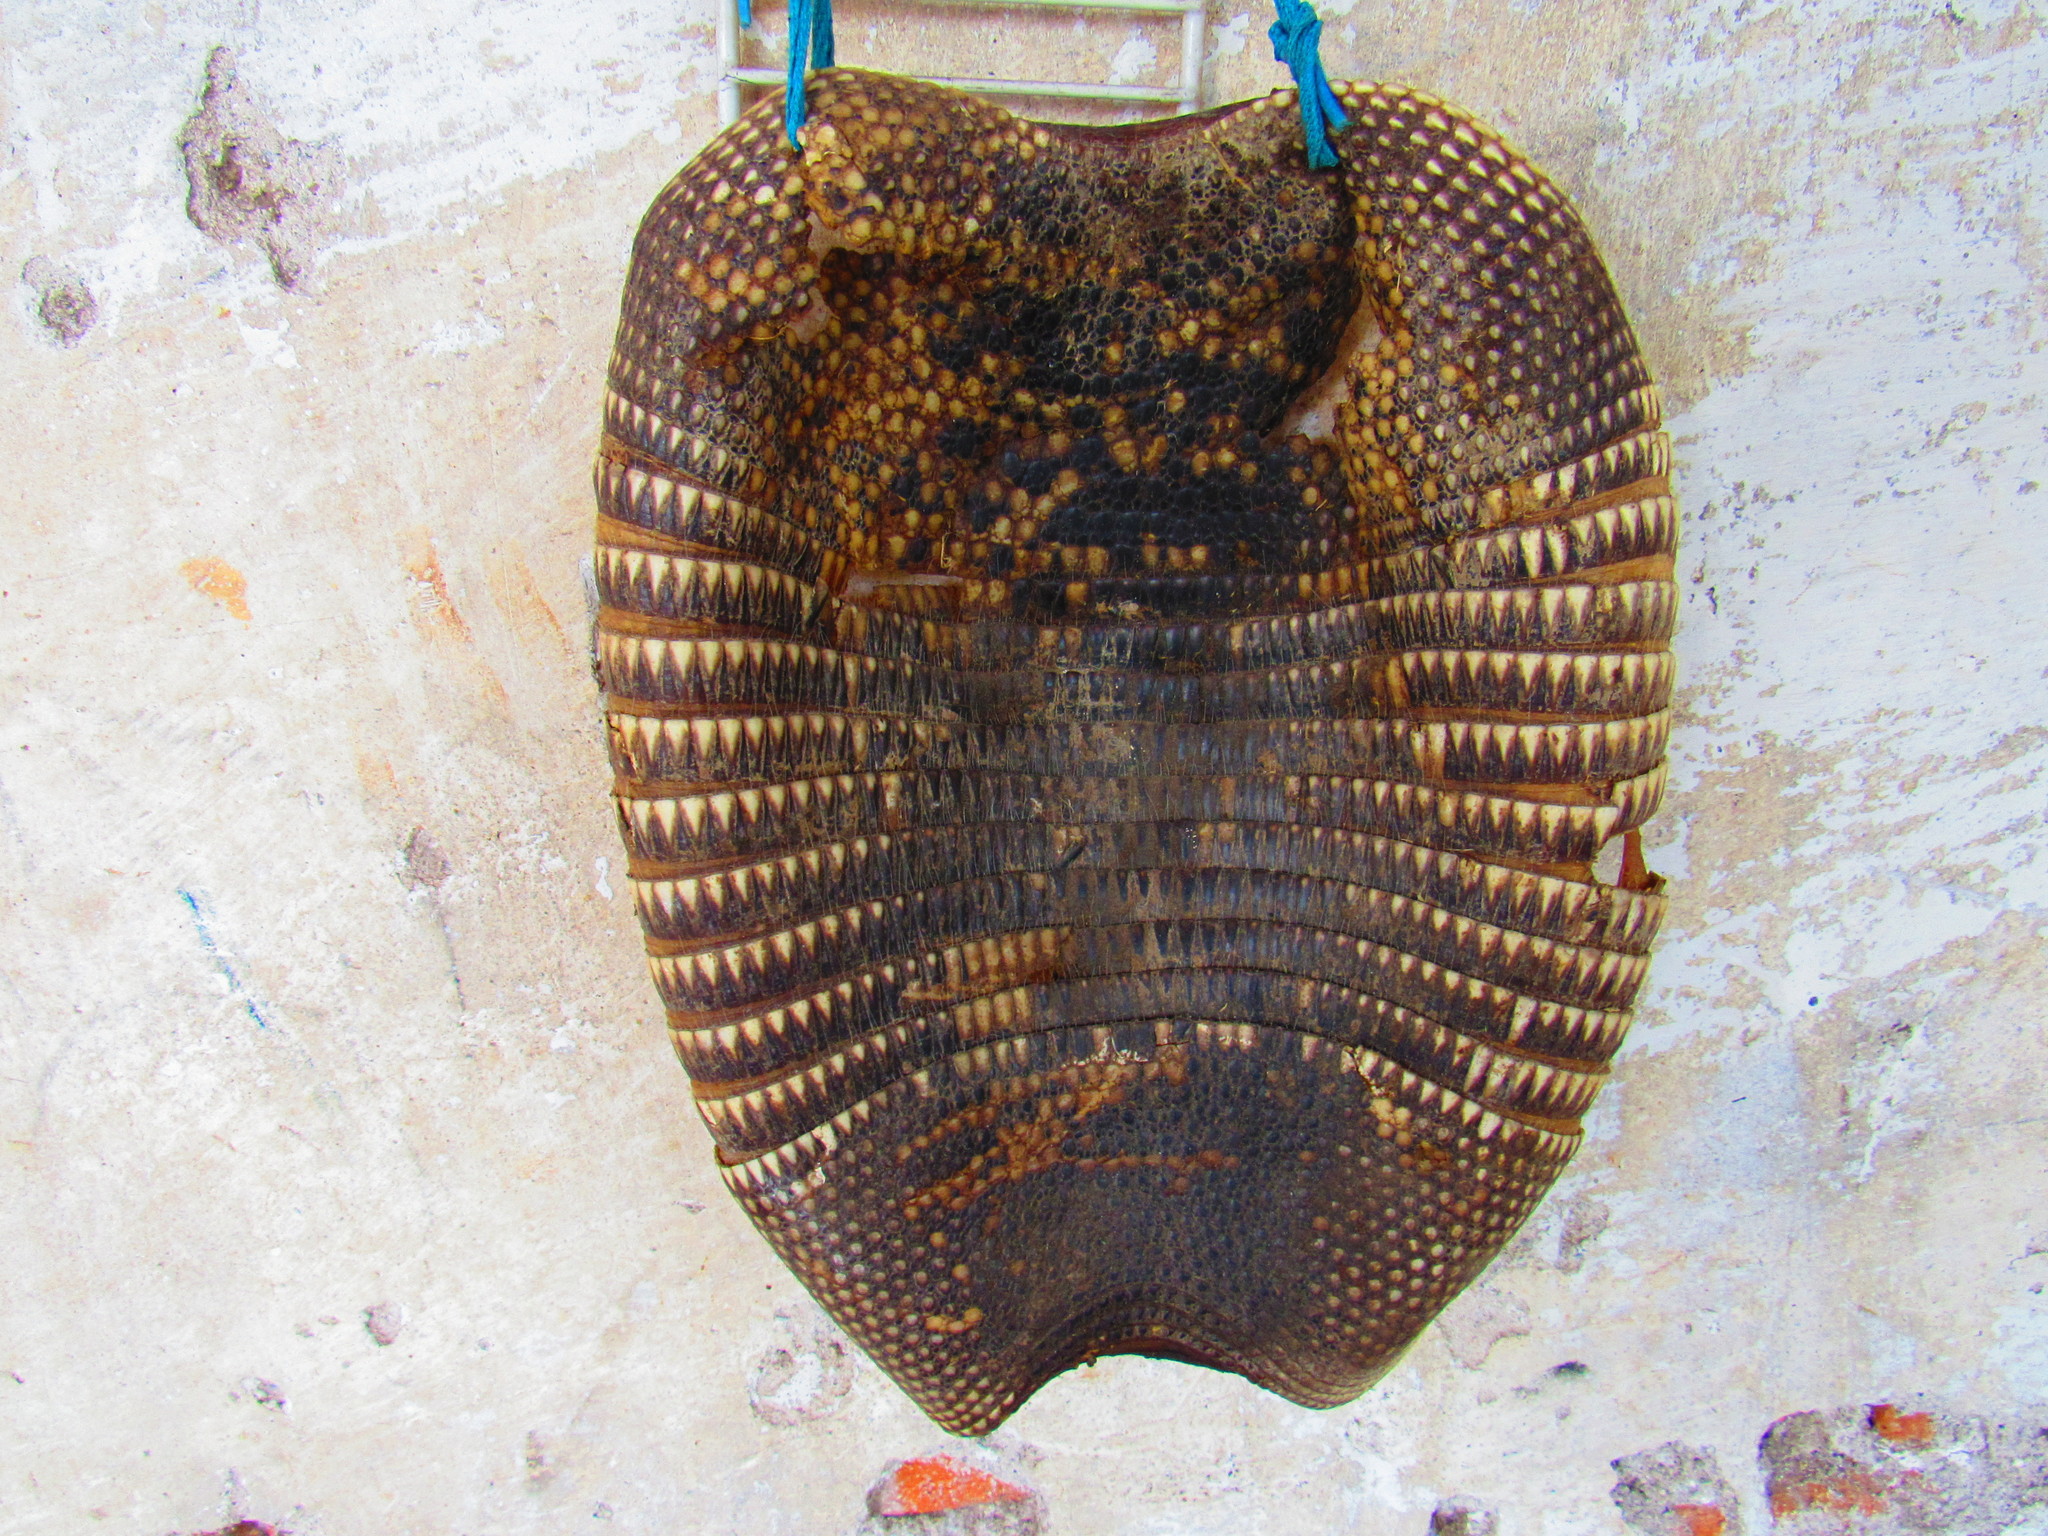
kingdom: Animalia
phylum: Chordata
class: Mammalia
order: Cingulata
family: Dasypodidae
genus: Dasypus
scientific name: Dasypus novemcinctus
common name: Nine-banded armadillo
